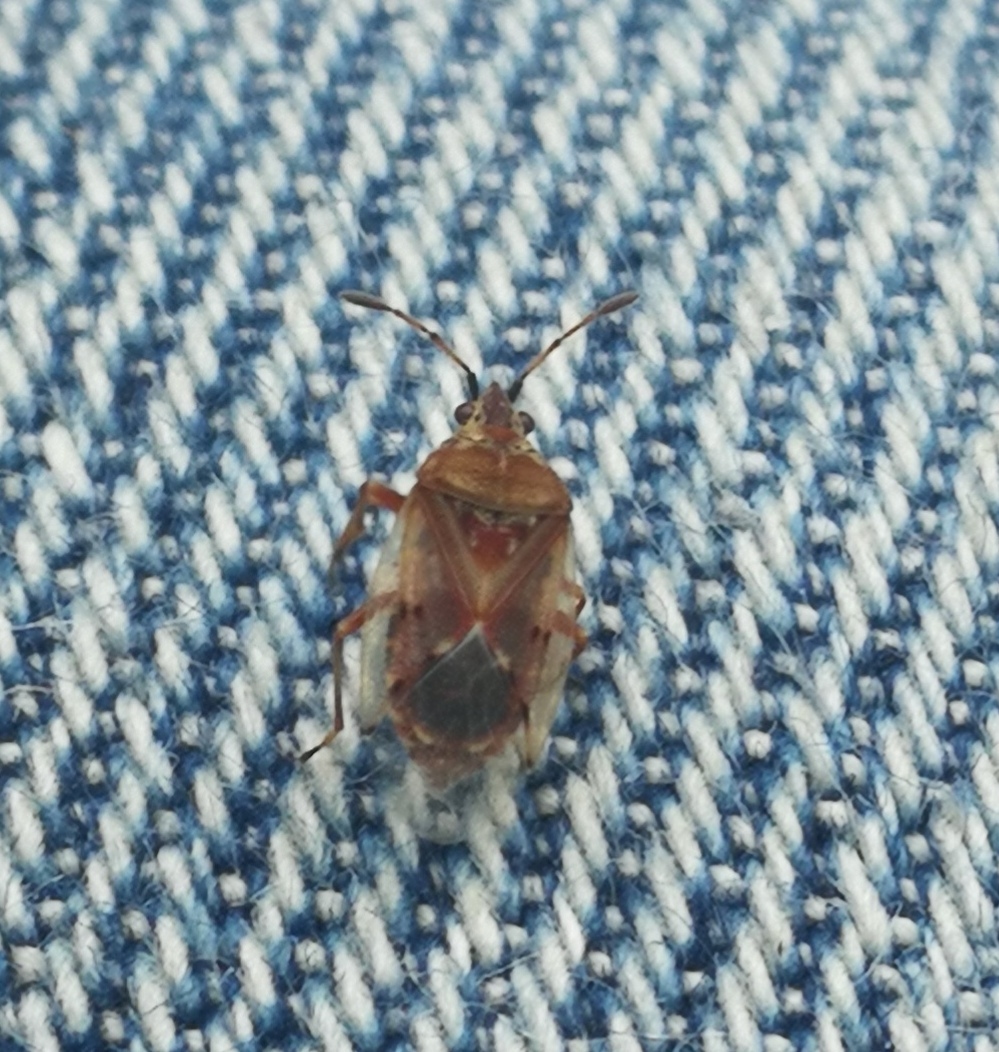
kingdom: Animalia
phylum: Arthropoda
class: Insecta
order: Hemiptera
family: Lygaeidae
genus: Kleidocerys
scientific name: Kleidocerys resedae
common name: Birch catkin bug
